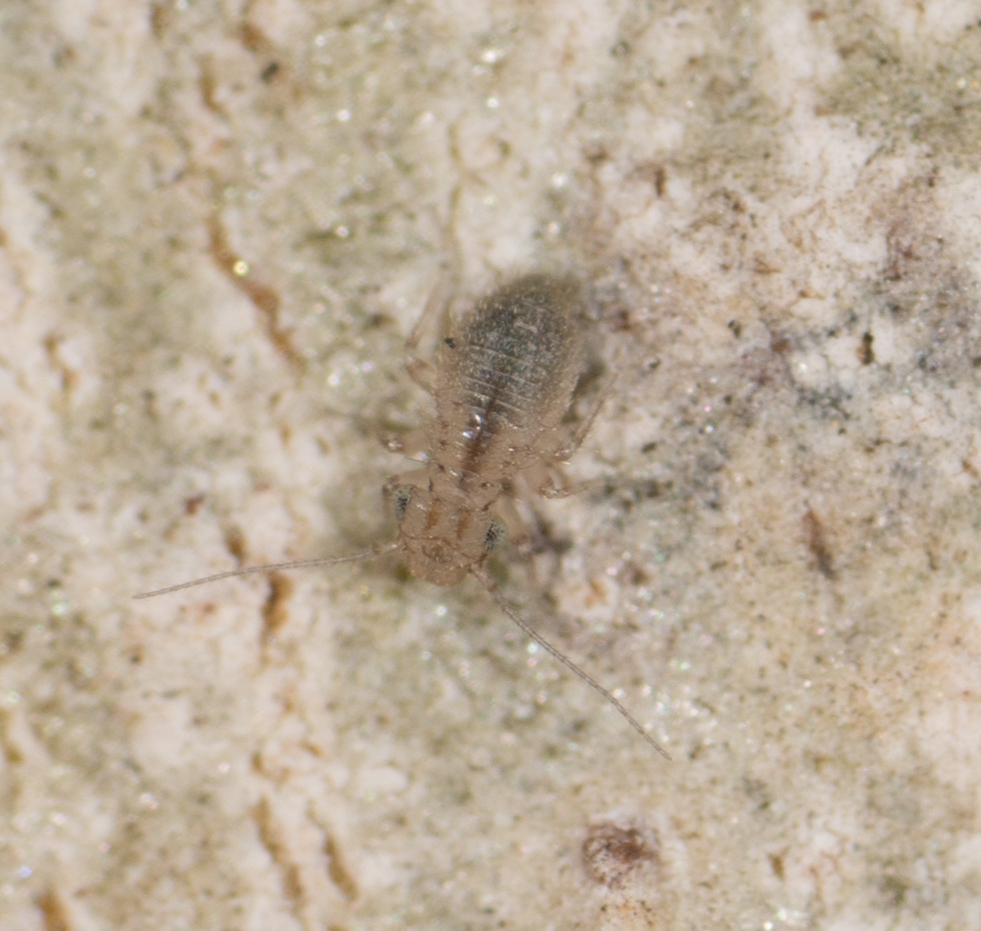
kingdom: Animalia
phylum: Arthropoda
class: Insecta
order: Psocodea
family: Trogiidae
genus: Cerobasis
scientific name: Cerobasis guestfalica
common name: Book lice
